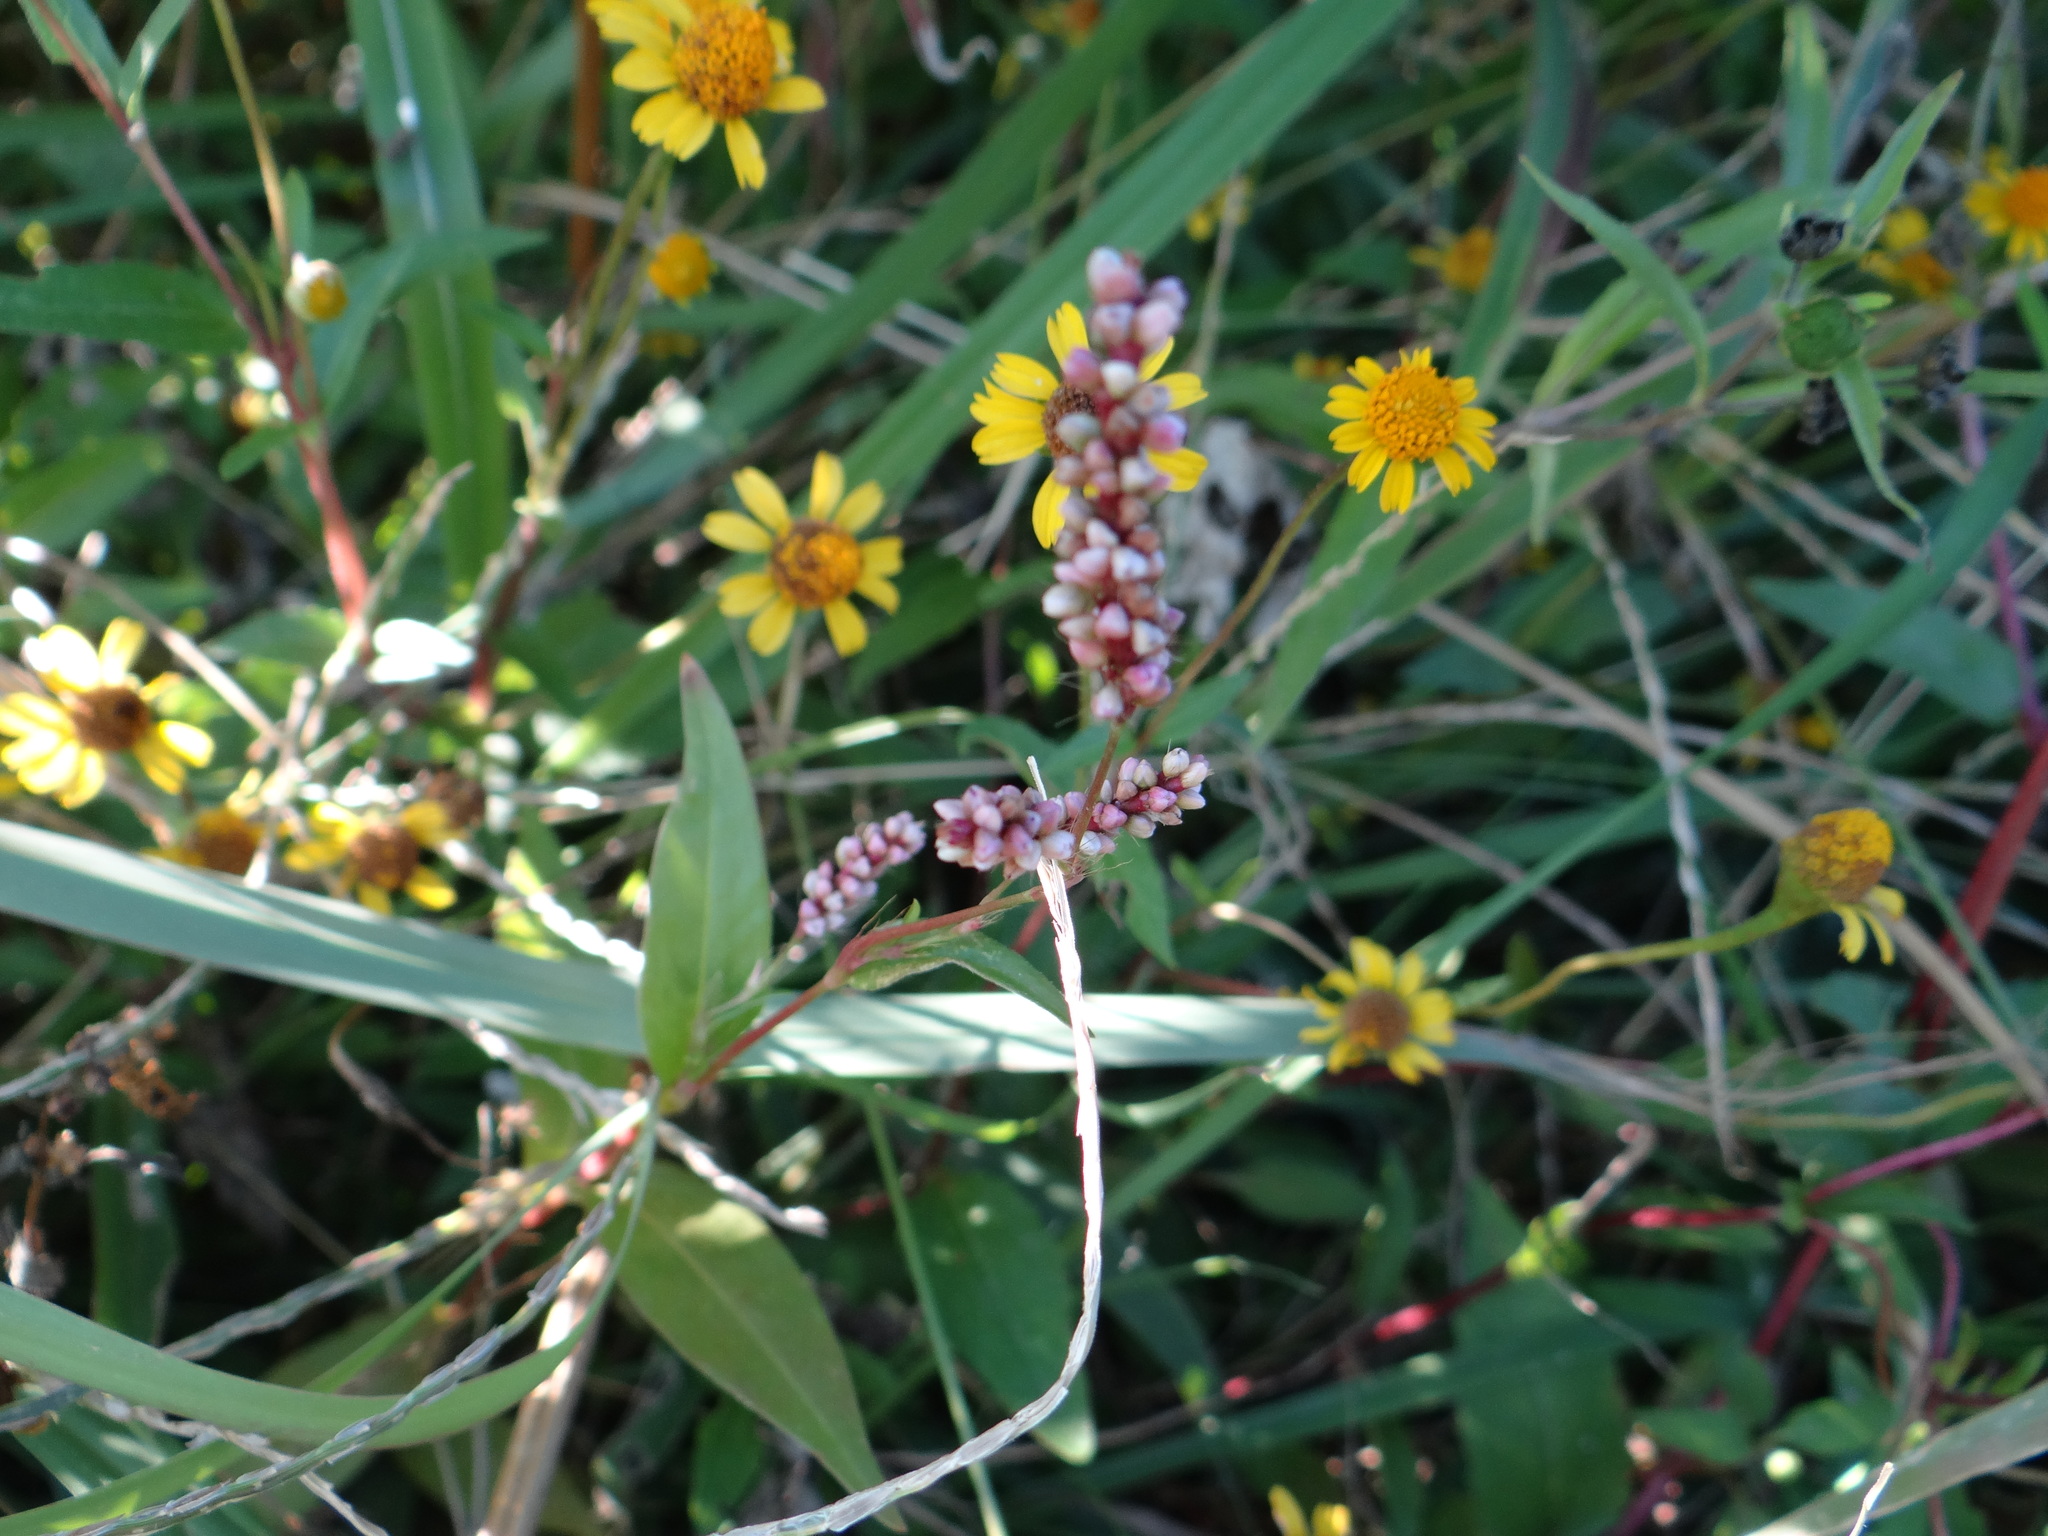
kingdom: Plantae
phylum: Tracheophyta
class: Magnoliopsida
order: Caryophyllales
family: Polygonaceae
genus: Persicaria
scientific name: Persicaria longiseta
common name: Bristly lady's-thumb
